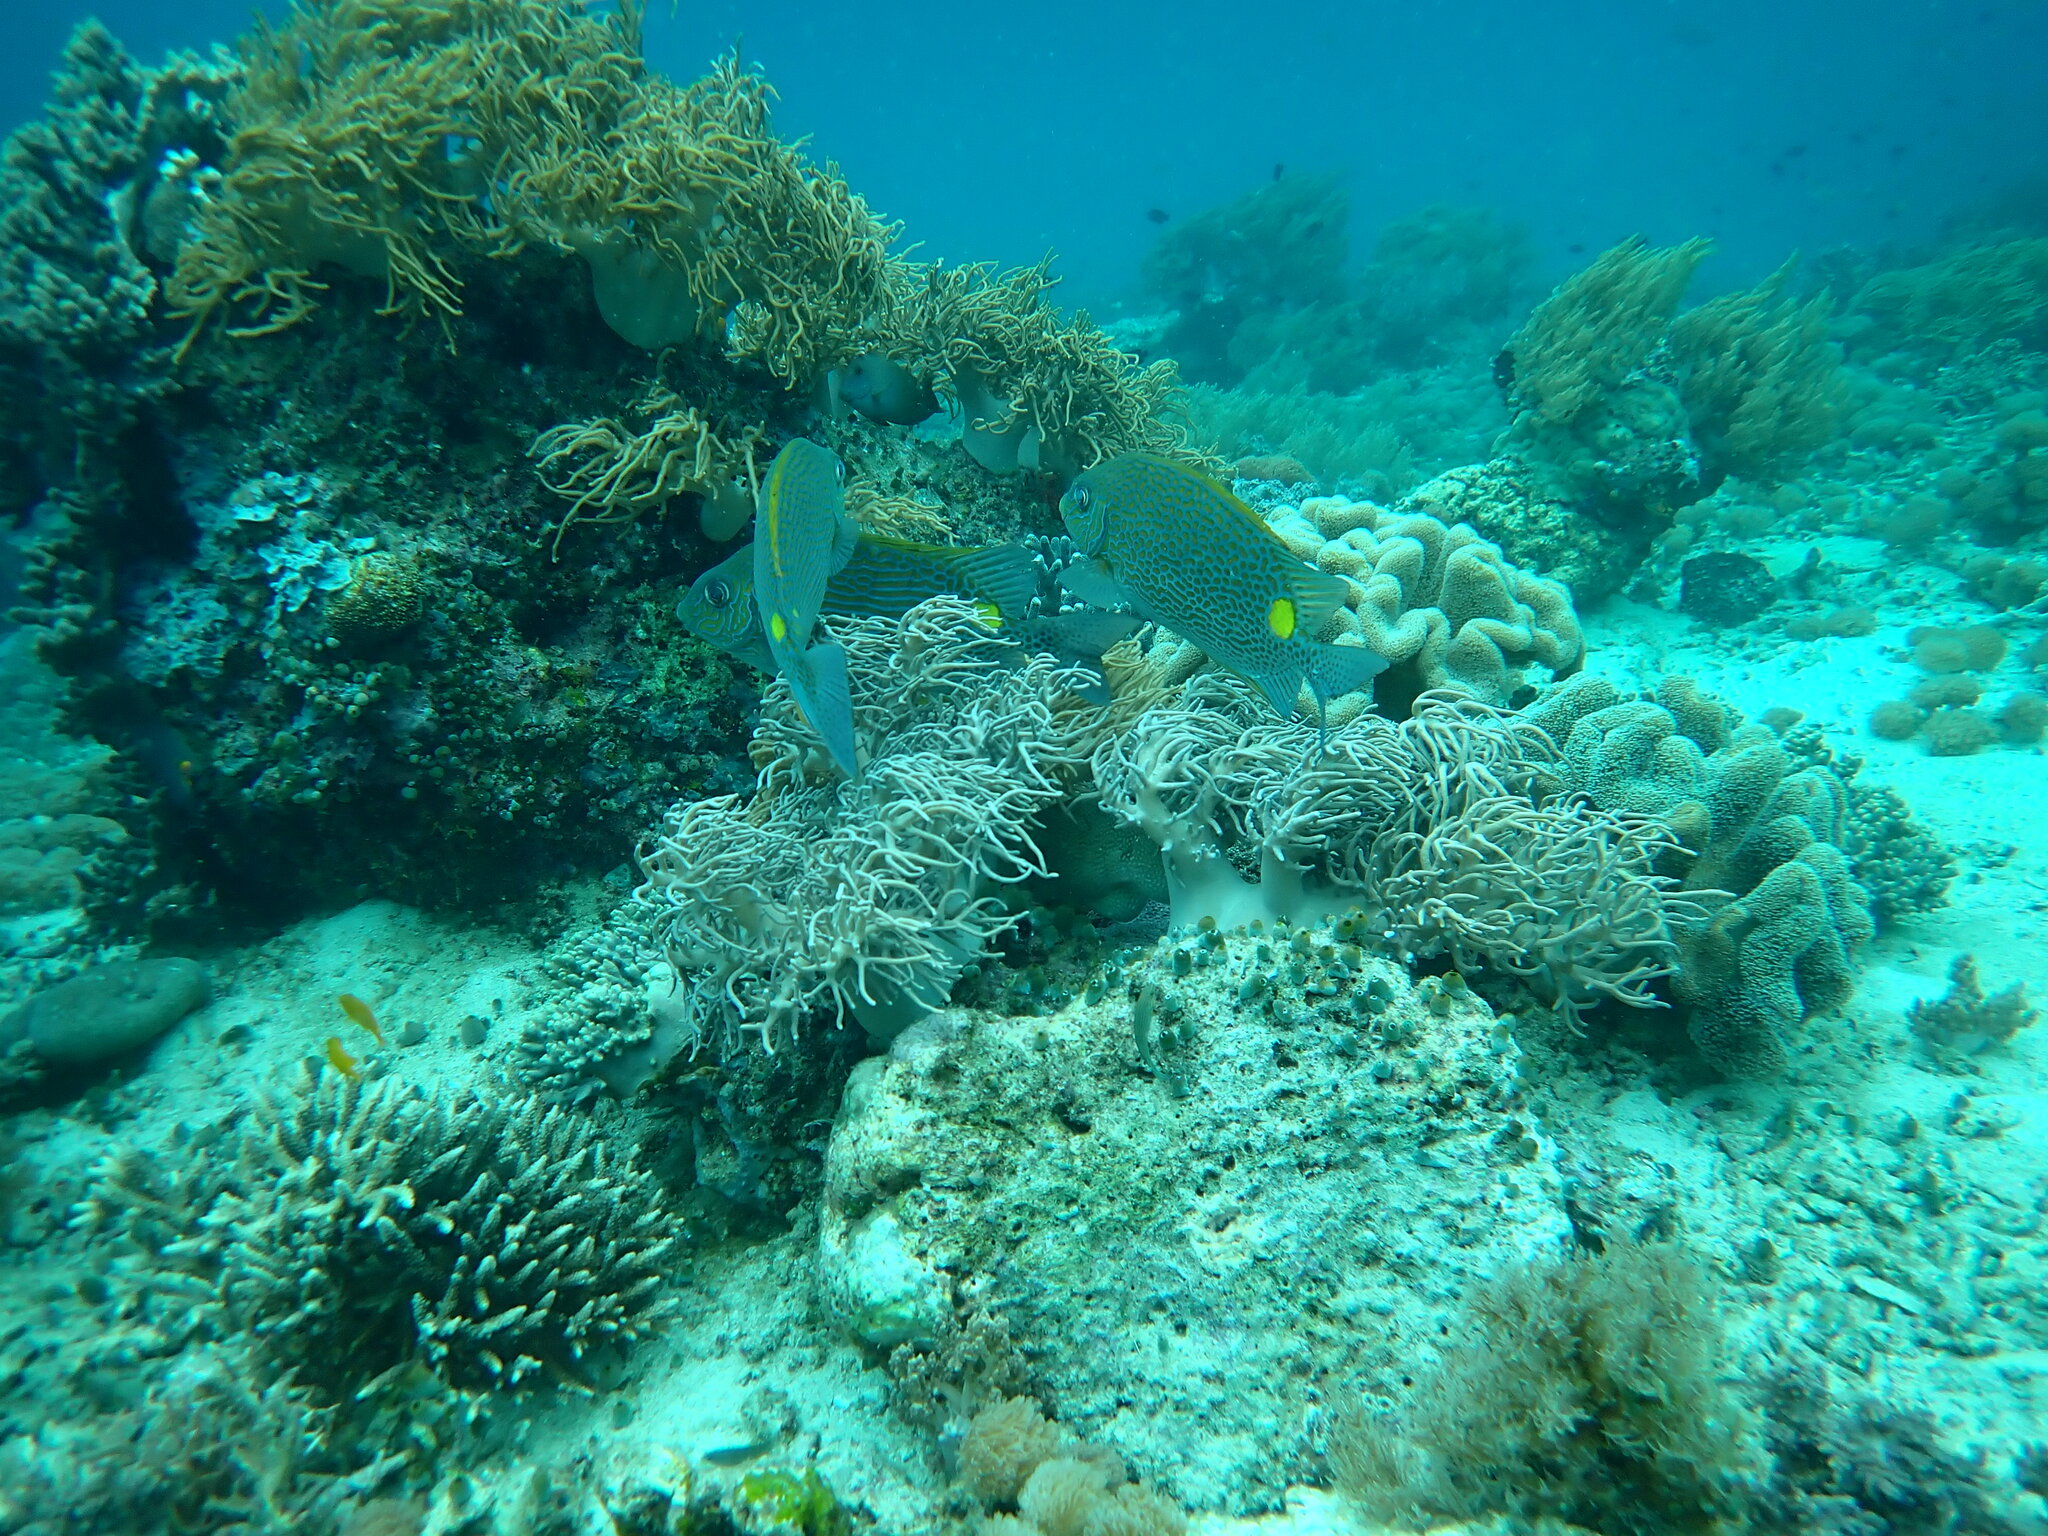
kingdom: Animalia
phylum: Chordata
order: Perciformes
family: Siganidae
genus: Siganus
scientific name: Siganus guttatus
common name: Golden rabbitfish
